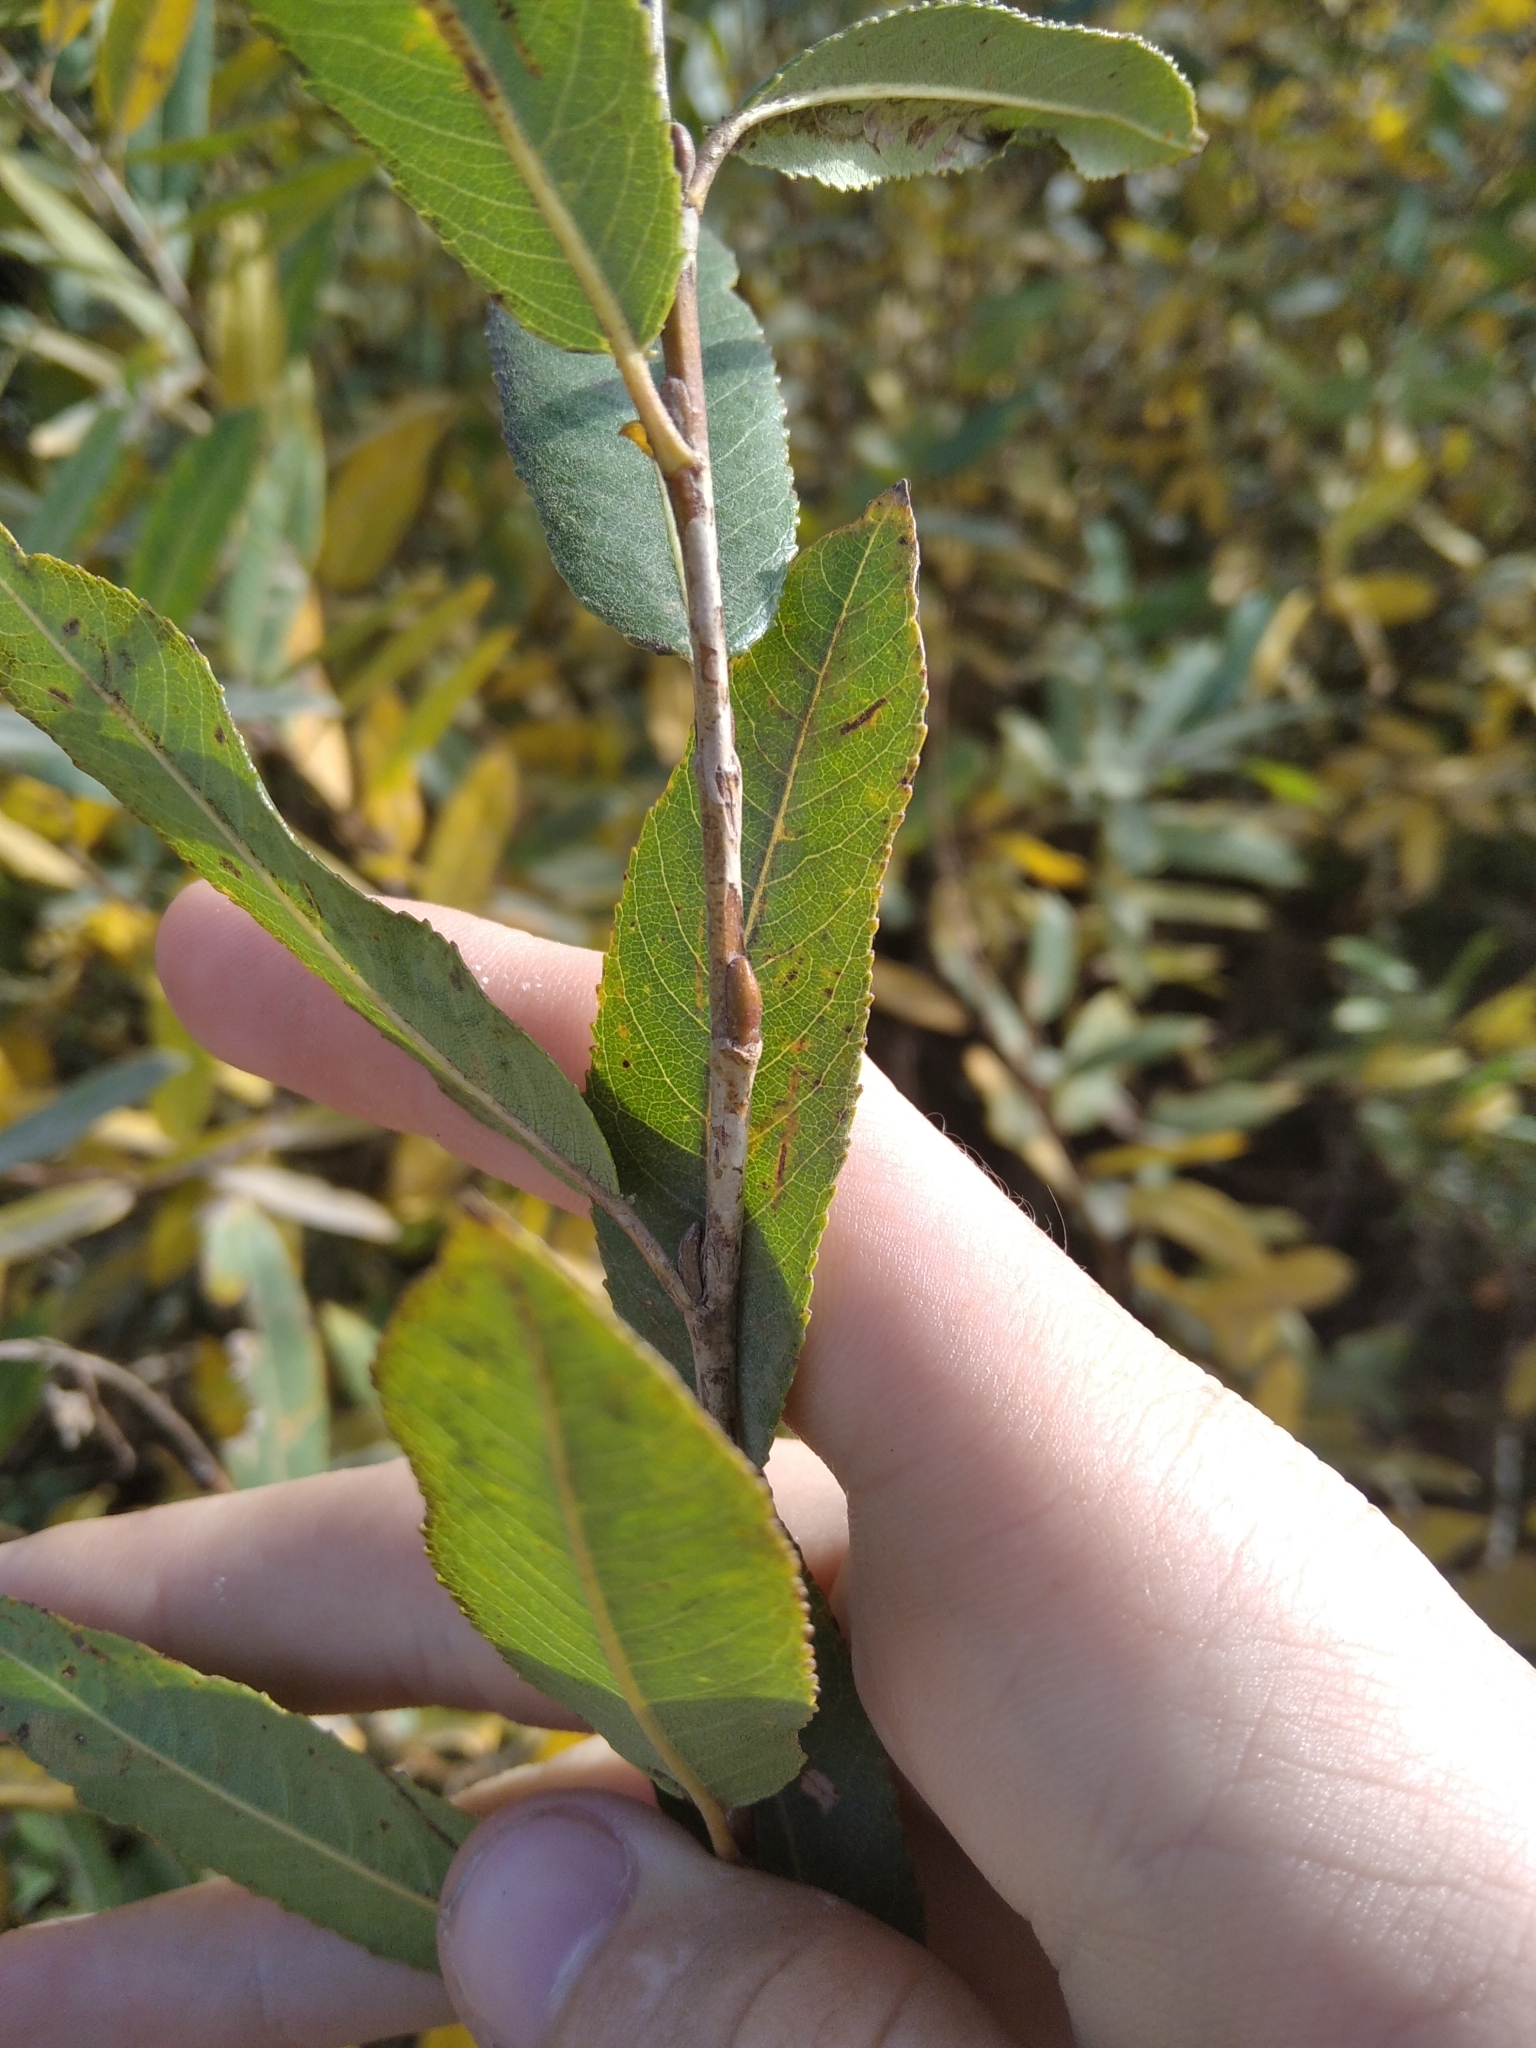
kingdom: Plantae
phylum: Tracheophyta
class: Magnoliopsida
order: Malpighiales
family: Salicaceae
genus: Salix
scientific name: Salix triandra
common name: Almond willow
